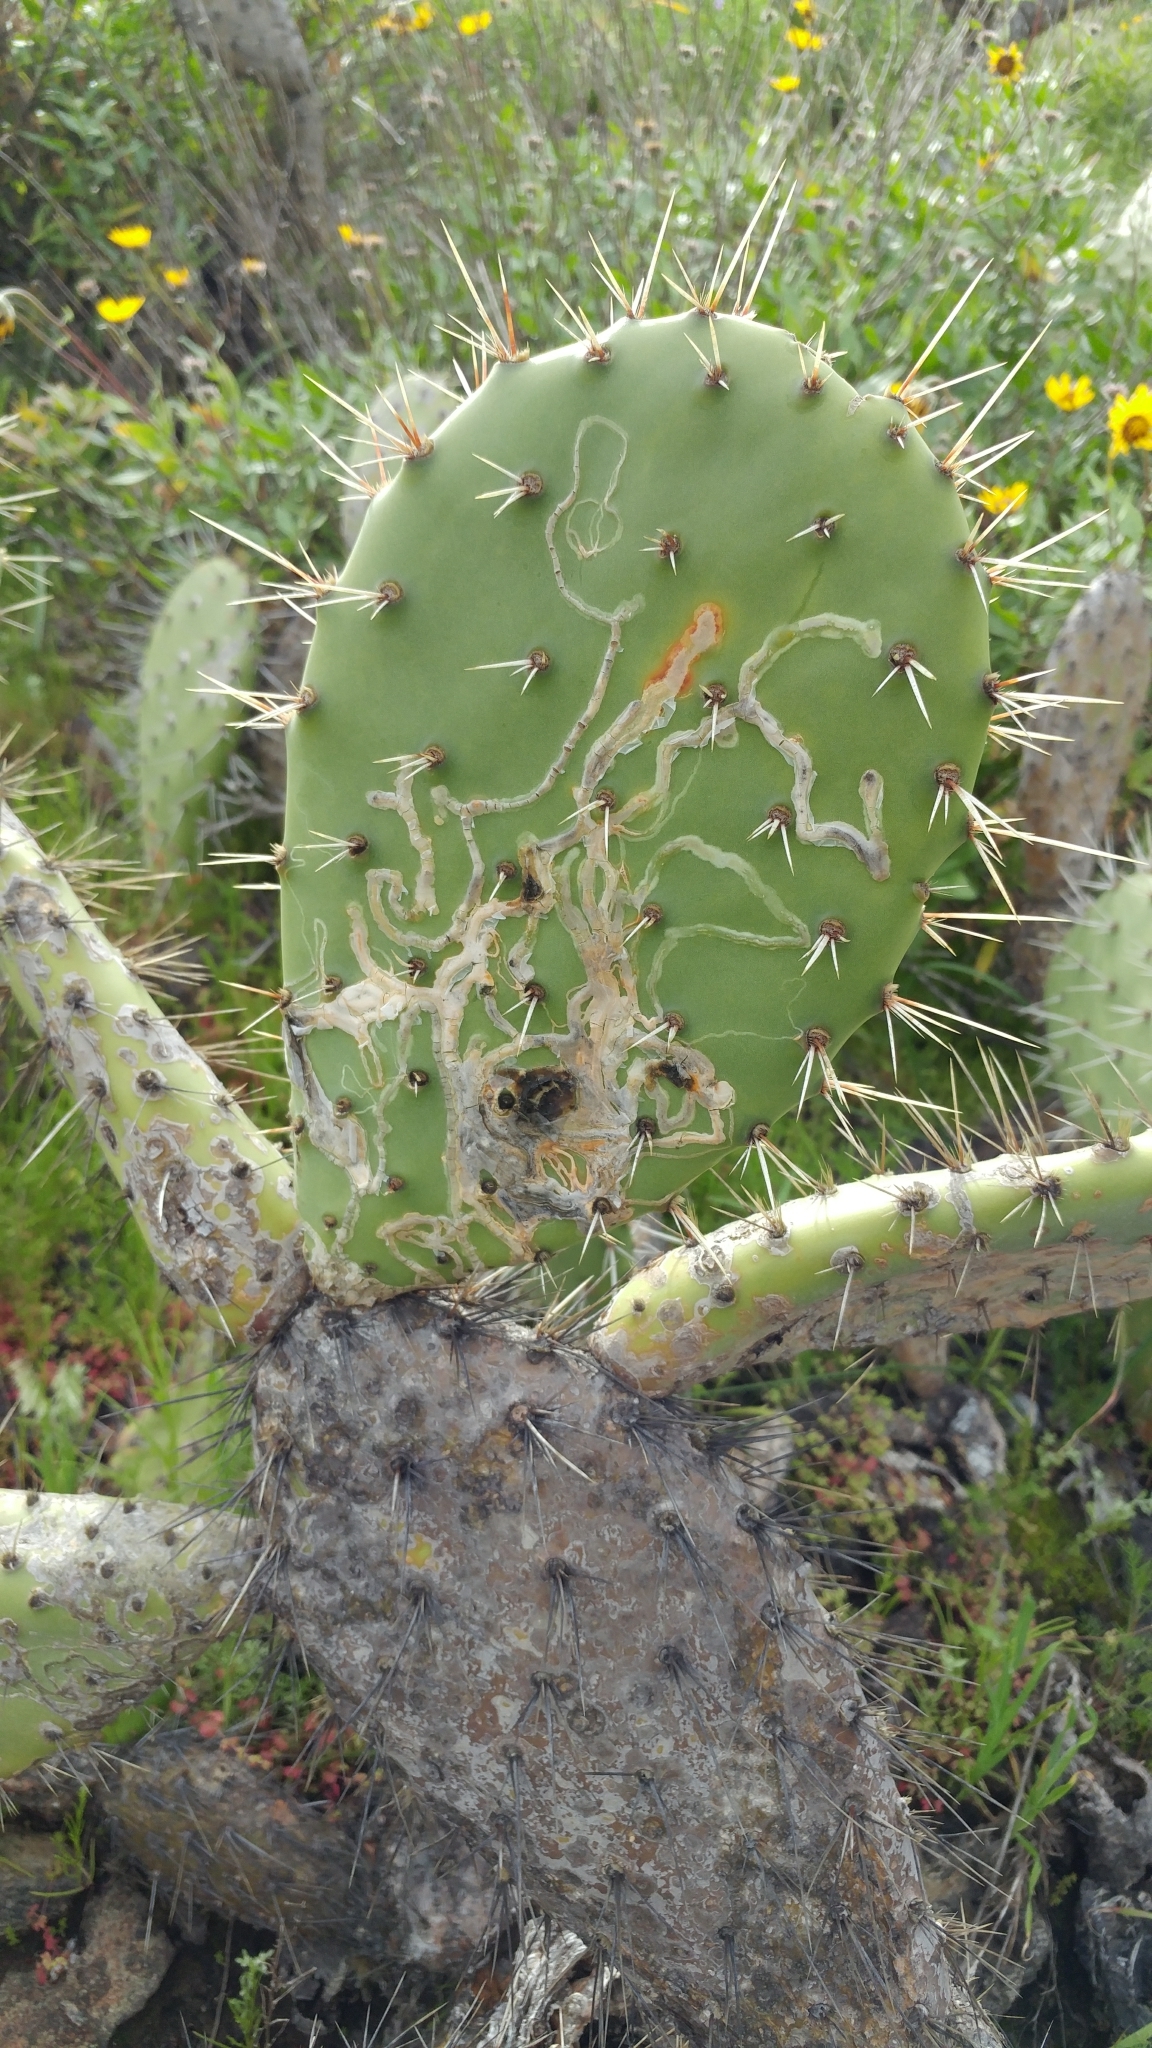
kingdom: Animalia
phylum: Arthropoda
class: Insecta
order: Lepidoptera
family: Gracillariidae
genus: Marmara
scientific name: Marmara opuntiella
